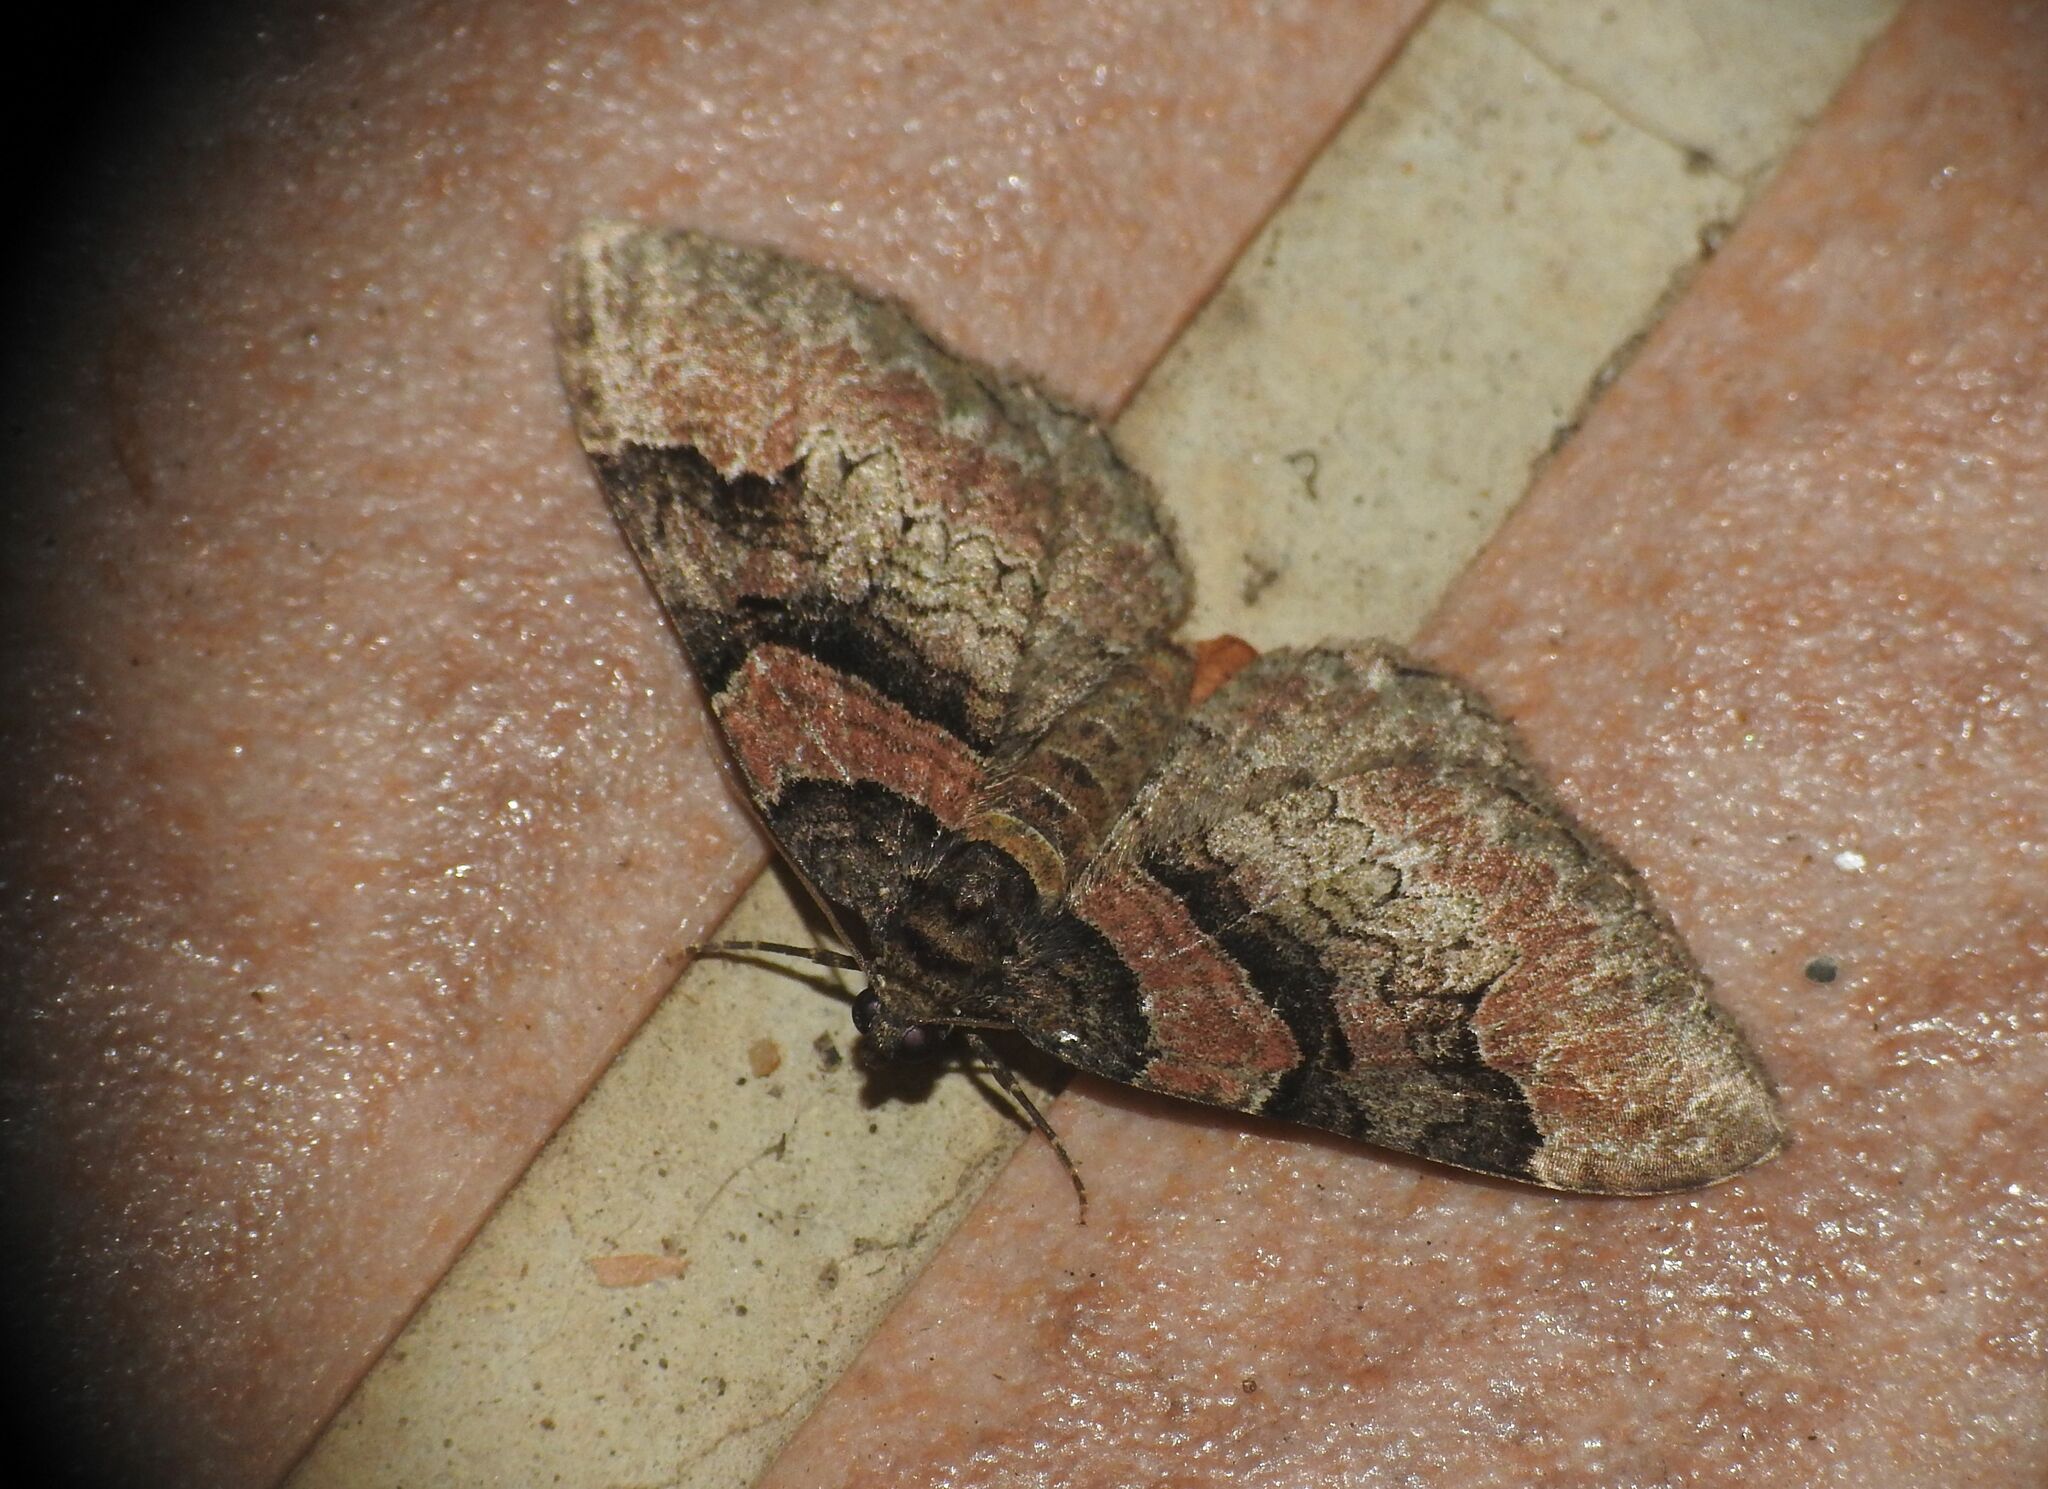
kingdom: Animalia
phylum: Arthropoda
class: Insecta
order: Lepidoptera
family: Geometridae
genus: Catarhoe
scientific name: Catarhoe rubidata
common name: Ruddy carpet
